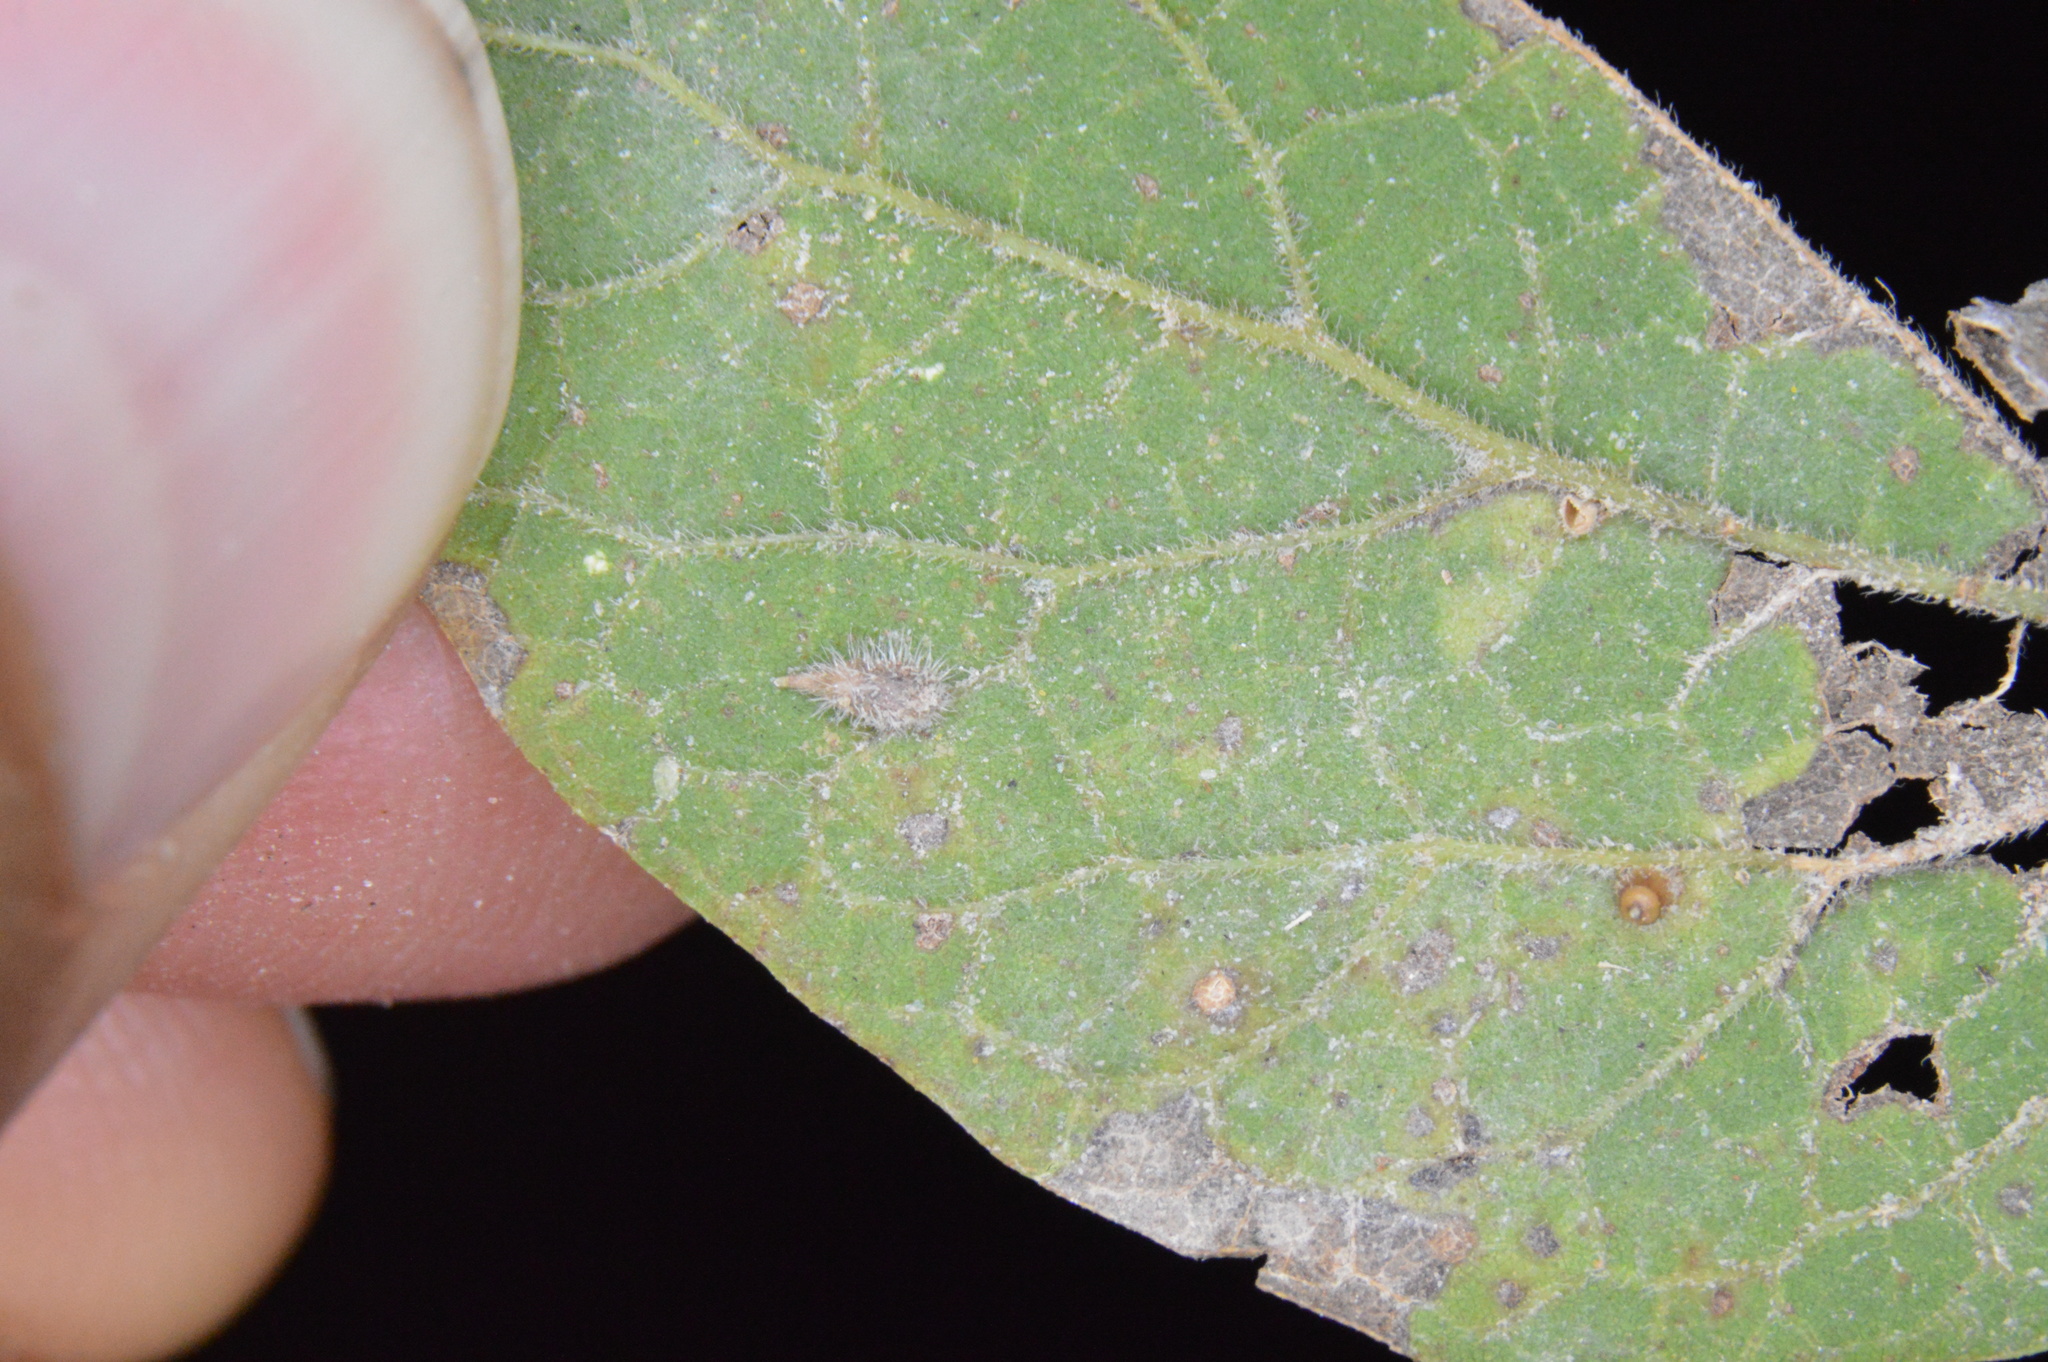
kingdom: Animalia
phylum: Arthropoda
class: Insecta
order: Diptera
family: Cecidomyiidae
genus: Celticecis
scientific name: Celticecis supina
